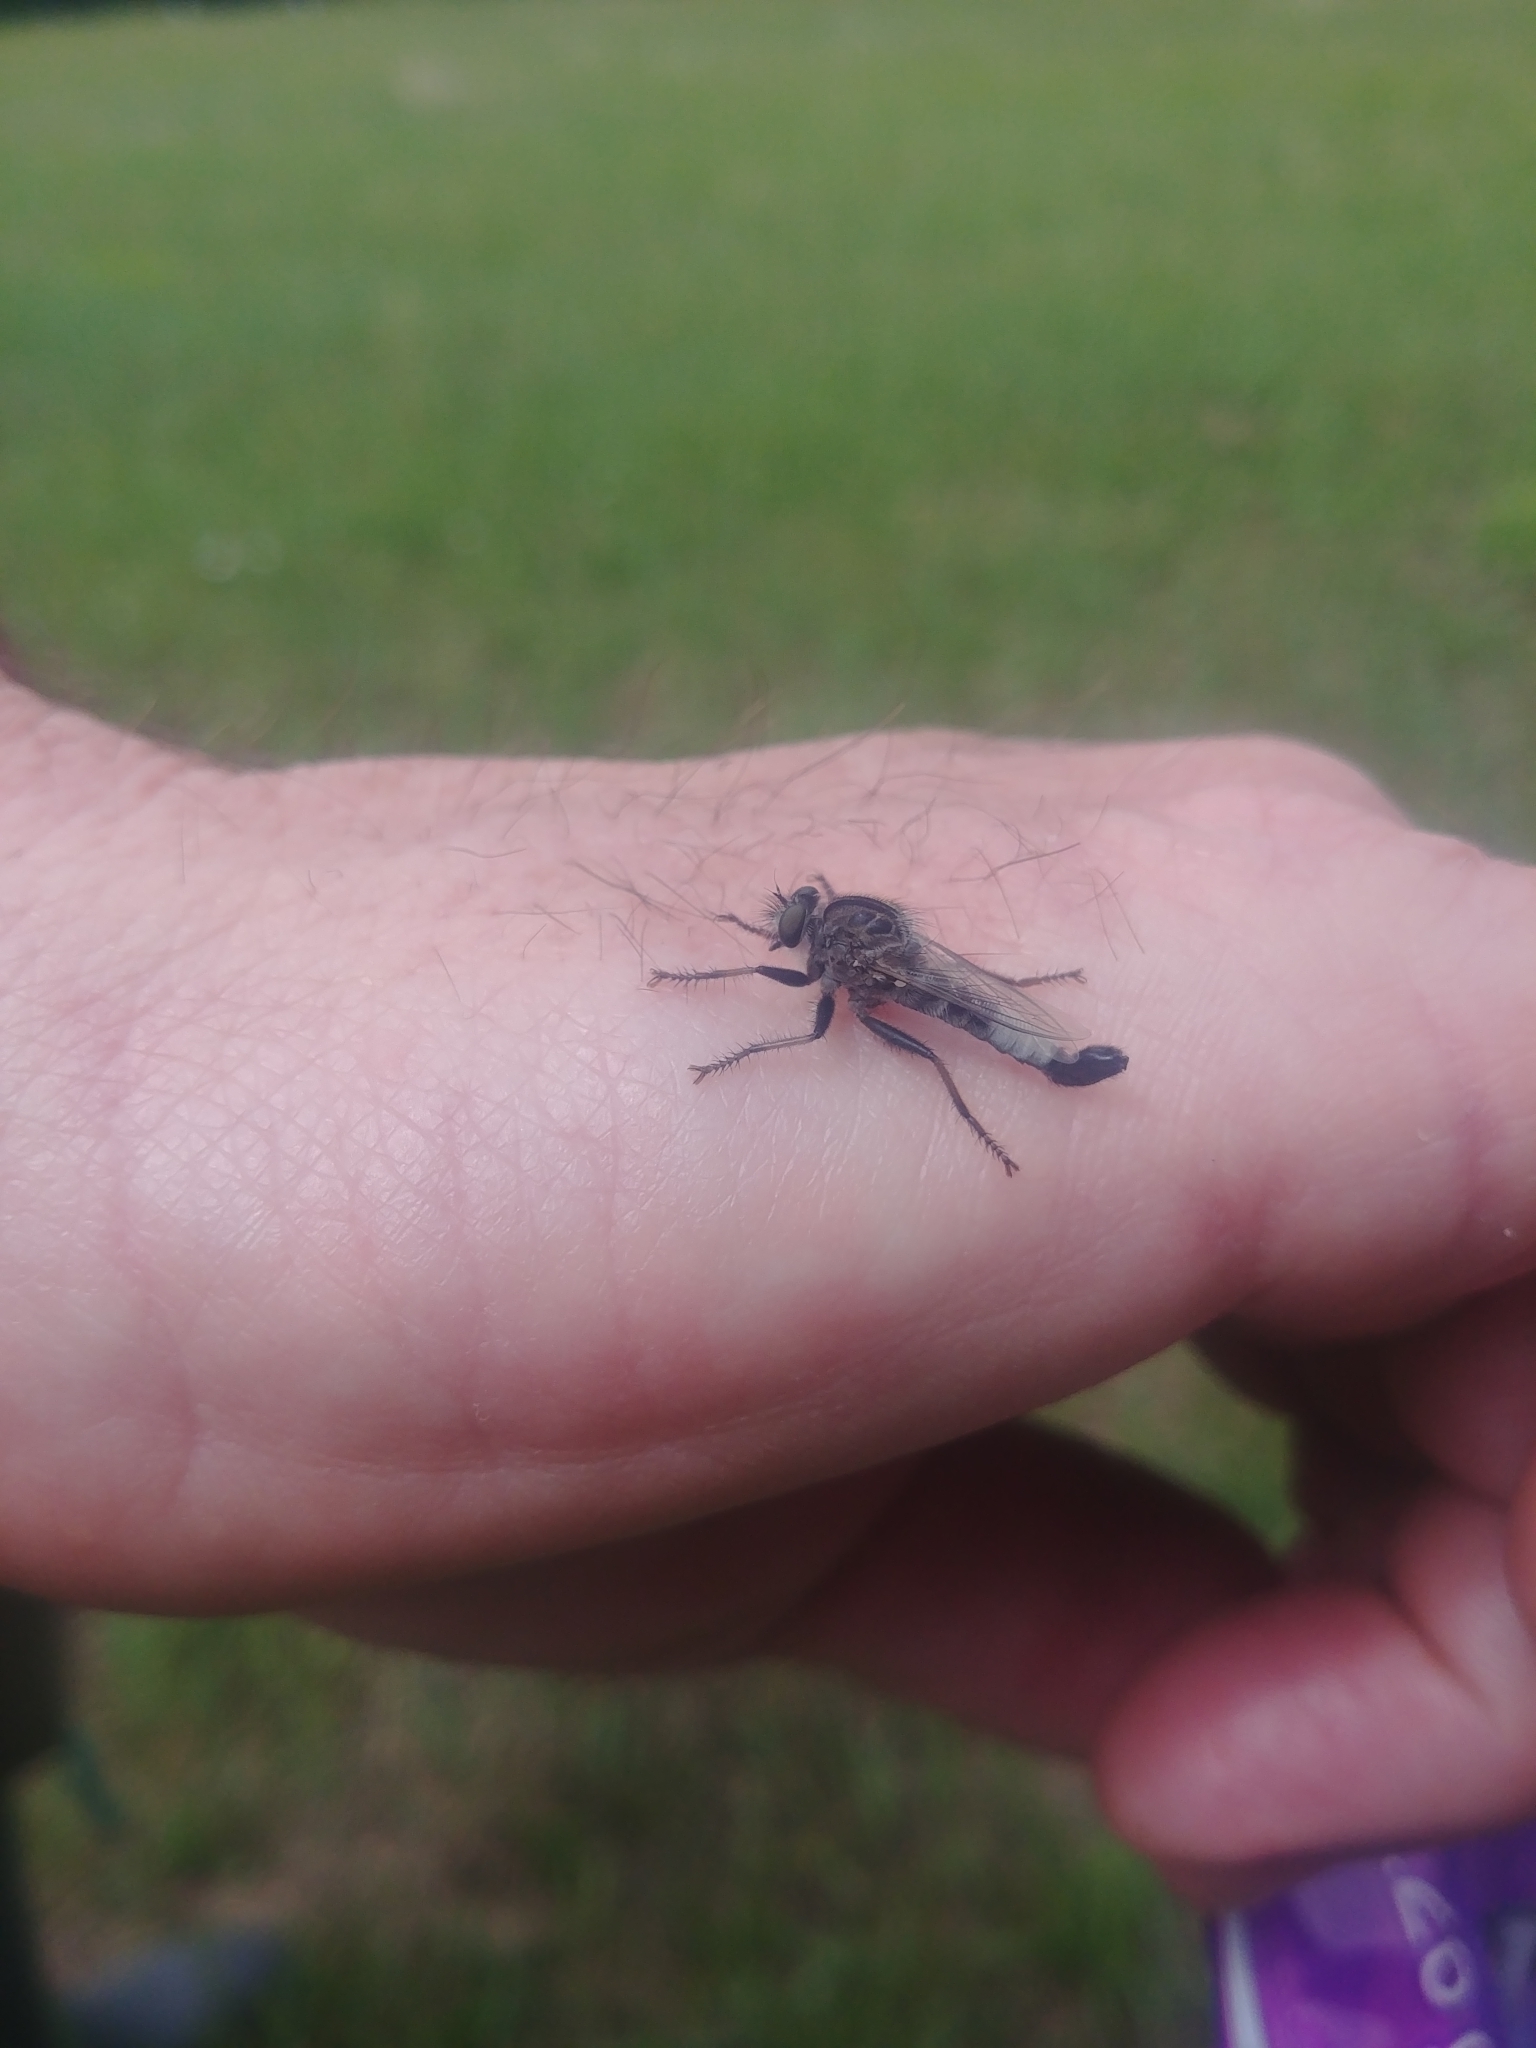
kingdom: Animalia
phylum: Arthropoda
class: Insecta
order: Diptera
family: Asilidae
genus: Efferia
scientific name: Efferia aestuans
